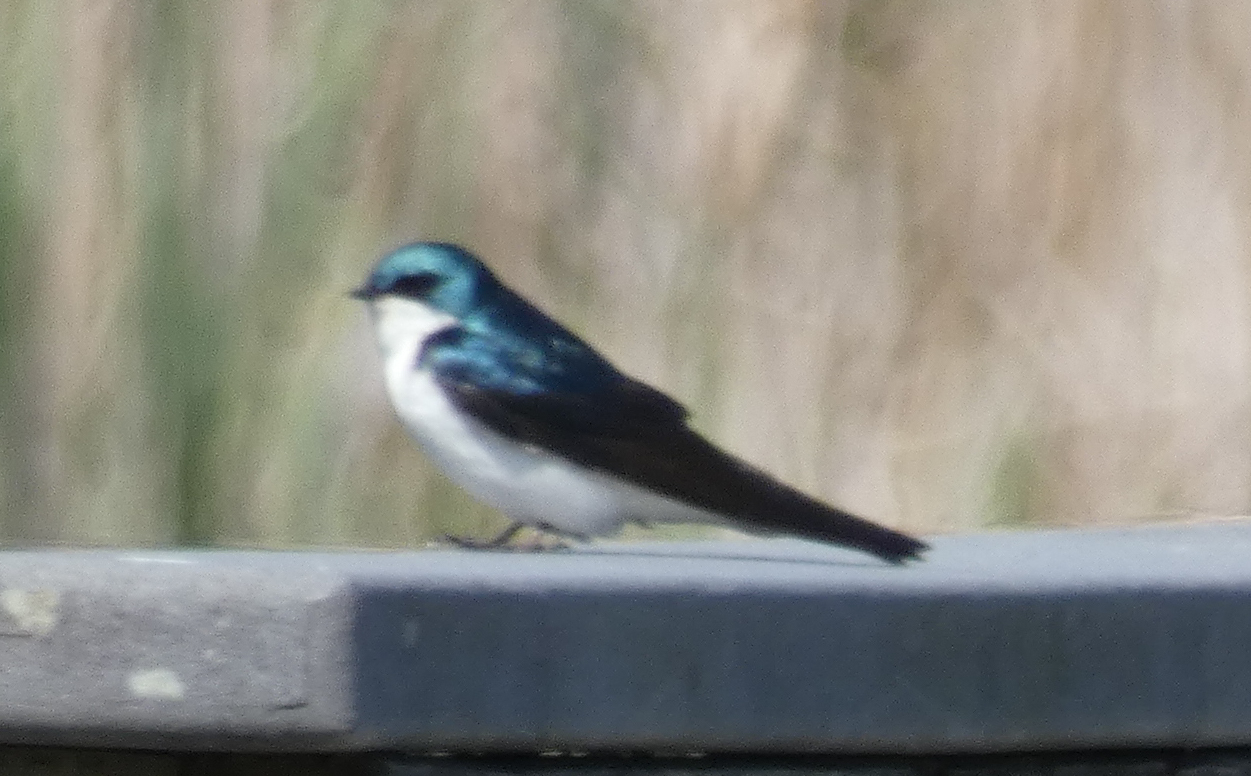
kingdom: Animalia
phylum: Chordata
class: Aves
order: Passeriformes
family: Hirundinidae
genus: Tachycineta
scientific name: Tachycineta bicolor
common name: Tree swallow
